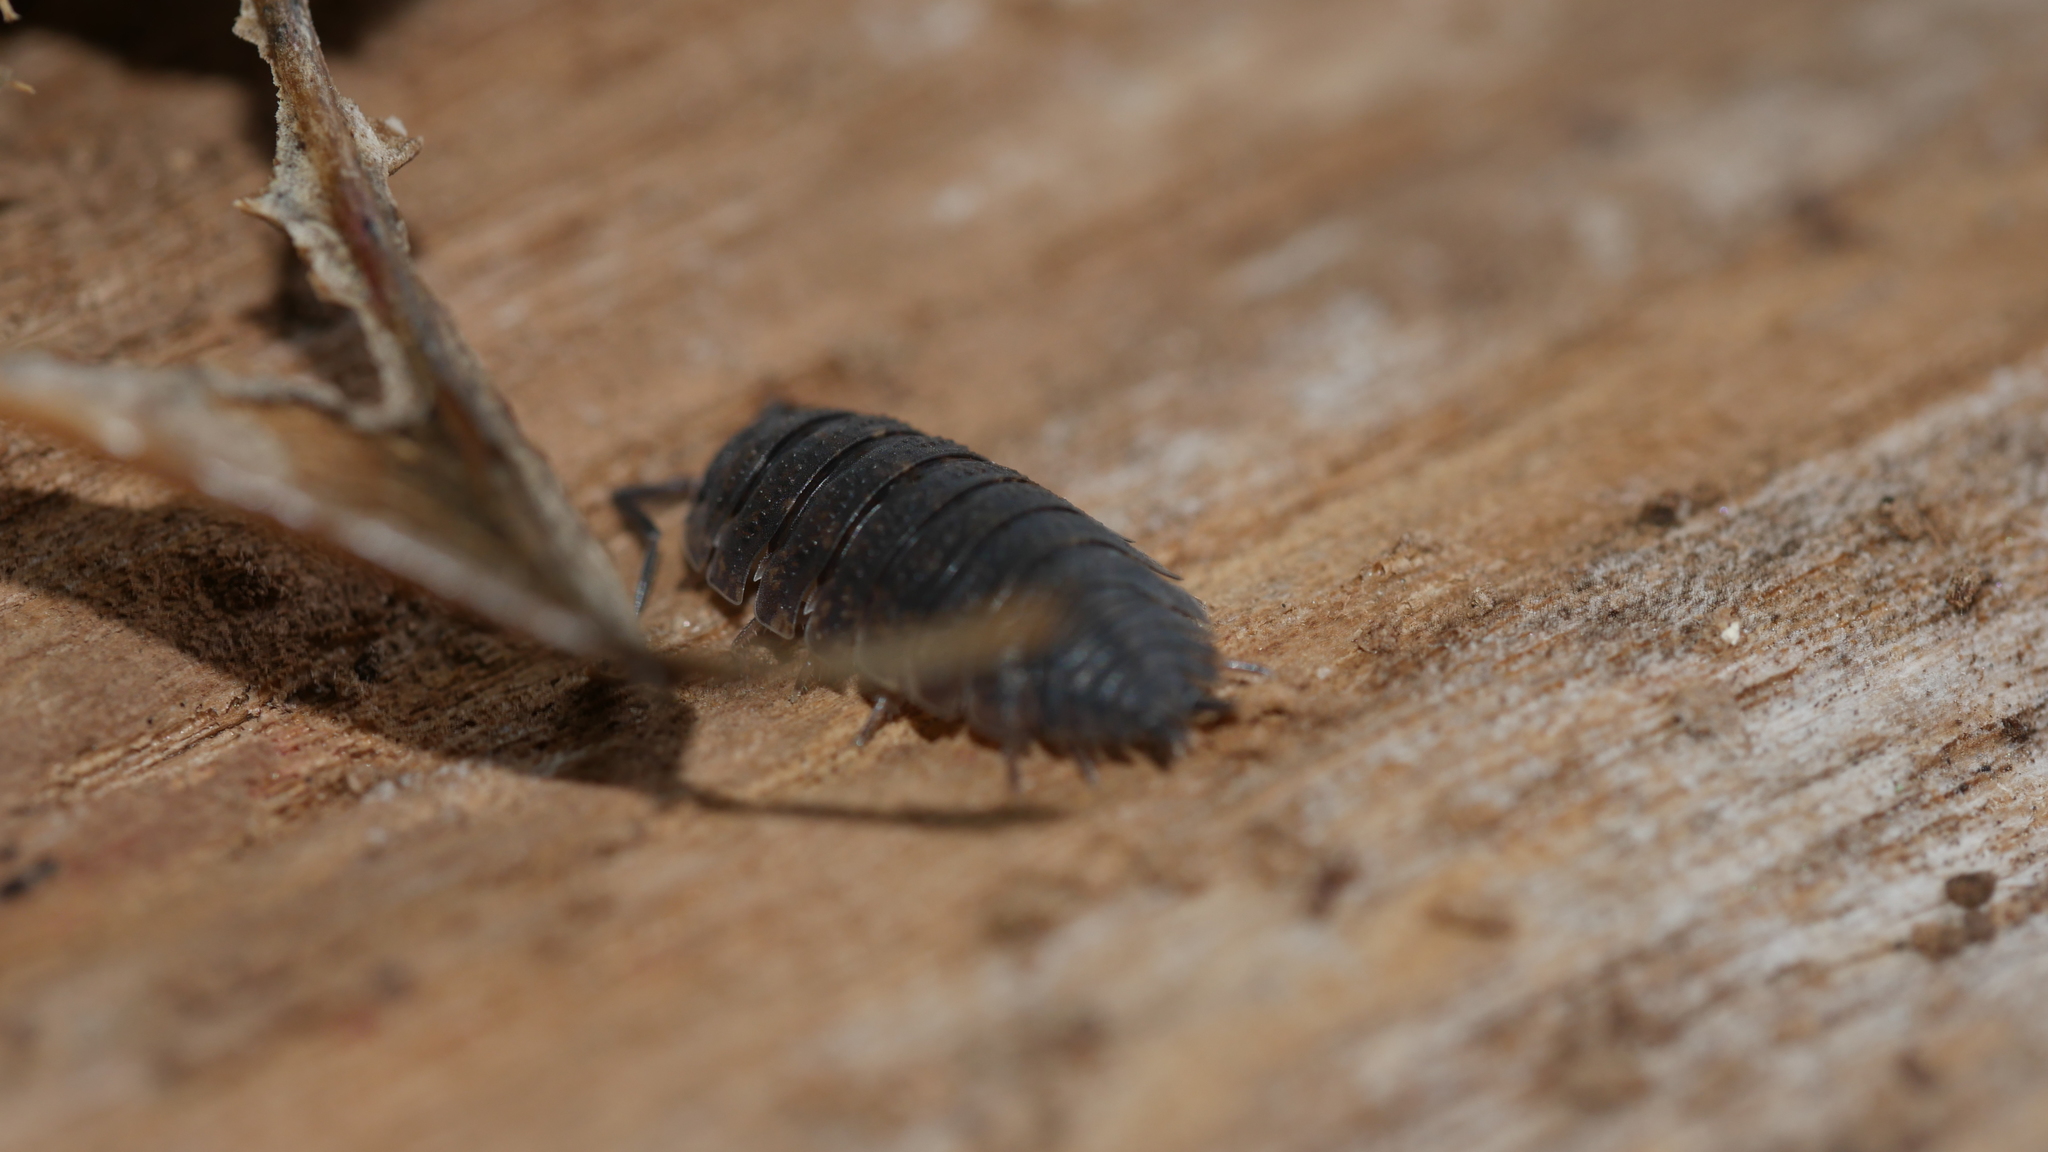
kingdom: Animalia
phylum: Arthropoda
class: Malacostraca
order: Isopoda
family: Porcellionidae
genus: Porcellio
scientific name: Porcellio scaber
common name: Common rough woodlouse
